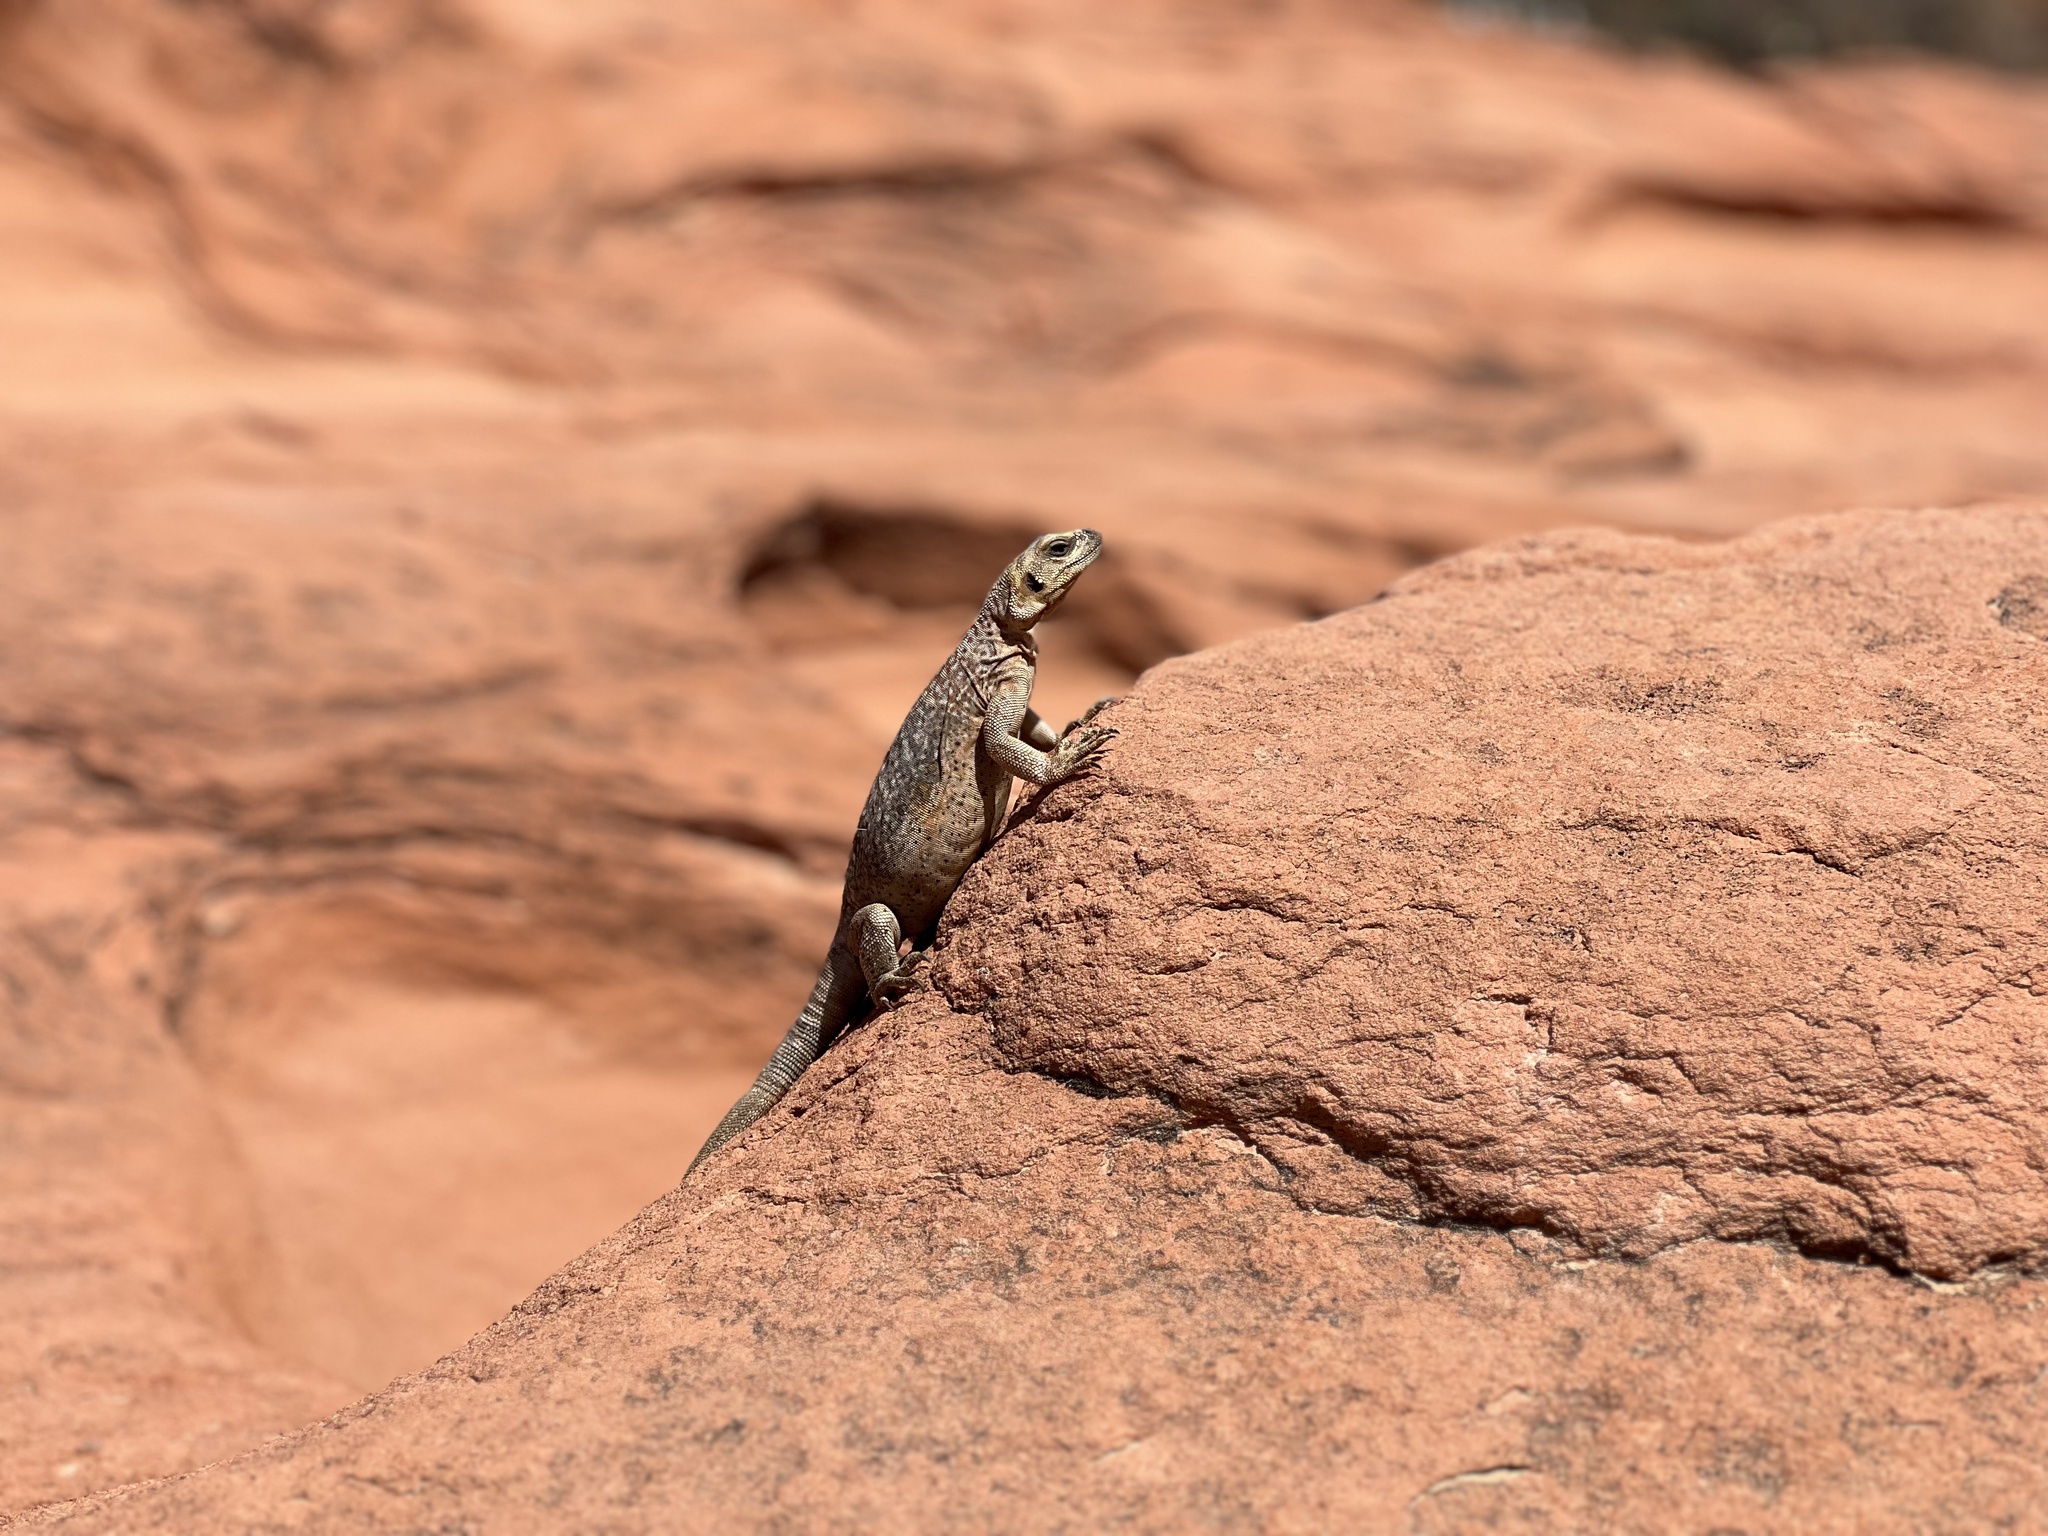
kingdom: Animalia
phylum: Chordata
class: Squamata
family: Iguanidae
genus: Sauromalus
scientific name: Sauromalus ater
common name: Northern chuckwalla
